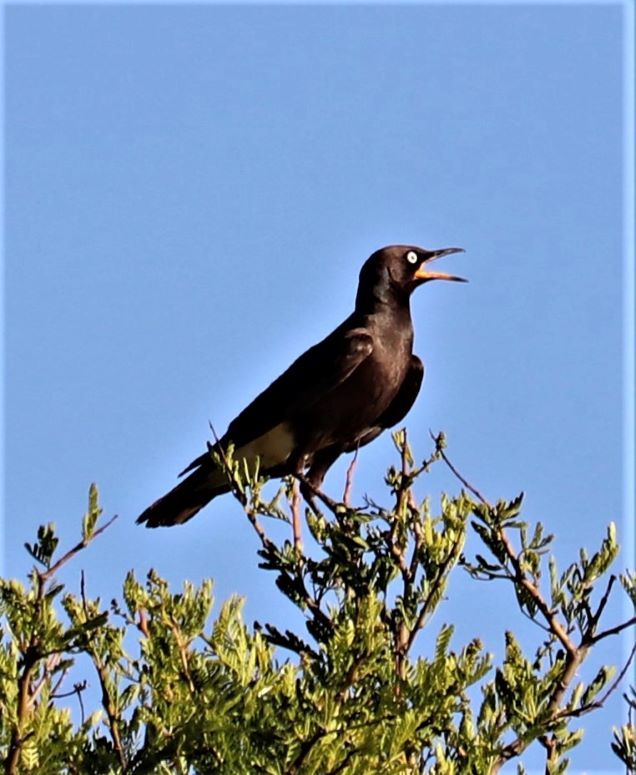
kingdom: Animalia
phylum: Chordata
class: Aves
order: Passeriformes
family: Sturnidae
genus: Lamprotornis
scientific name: Lamprotornis bicolor
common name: Pied starling
